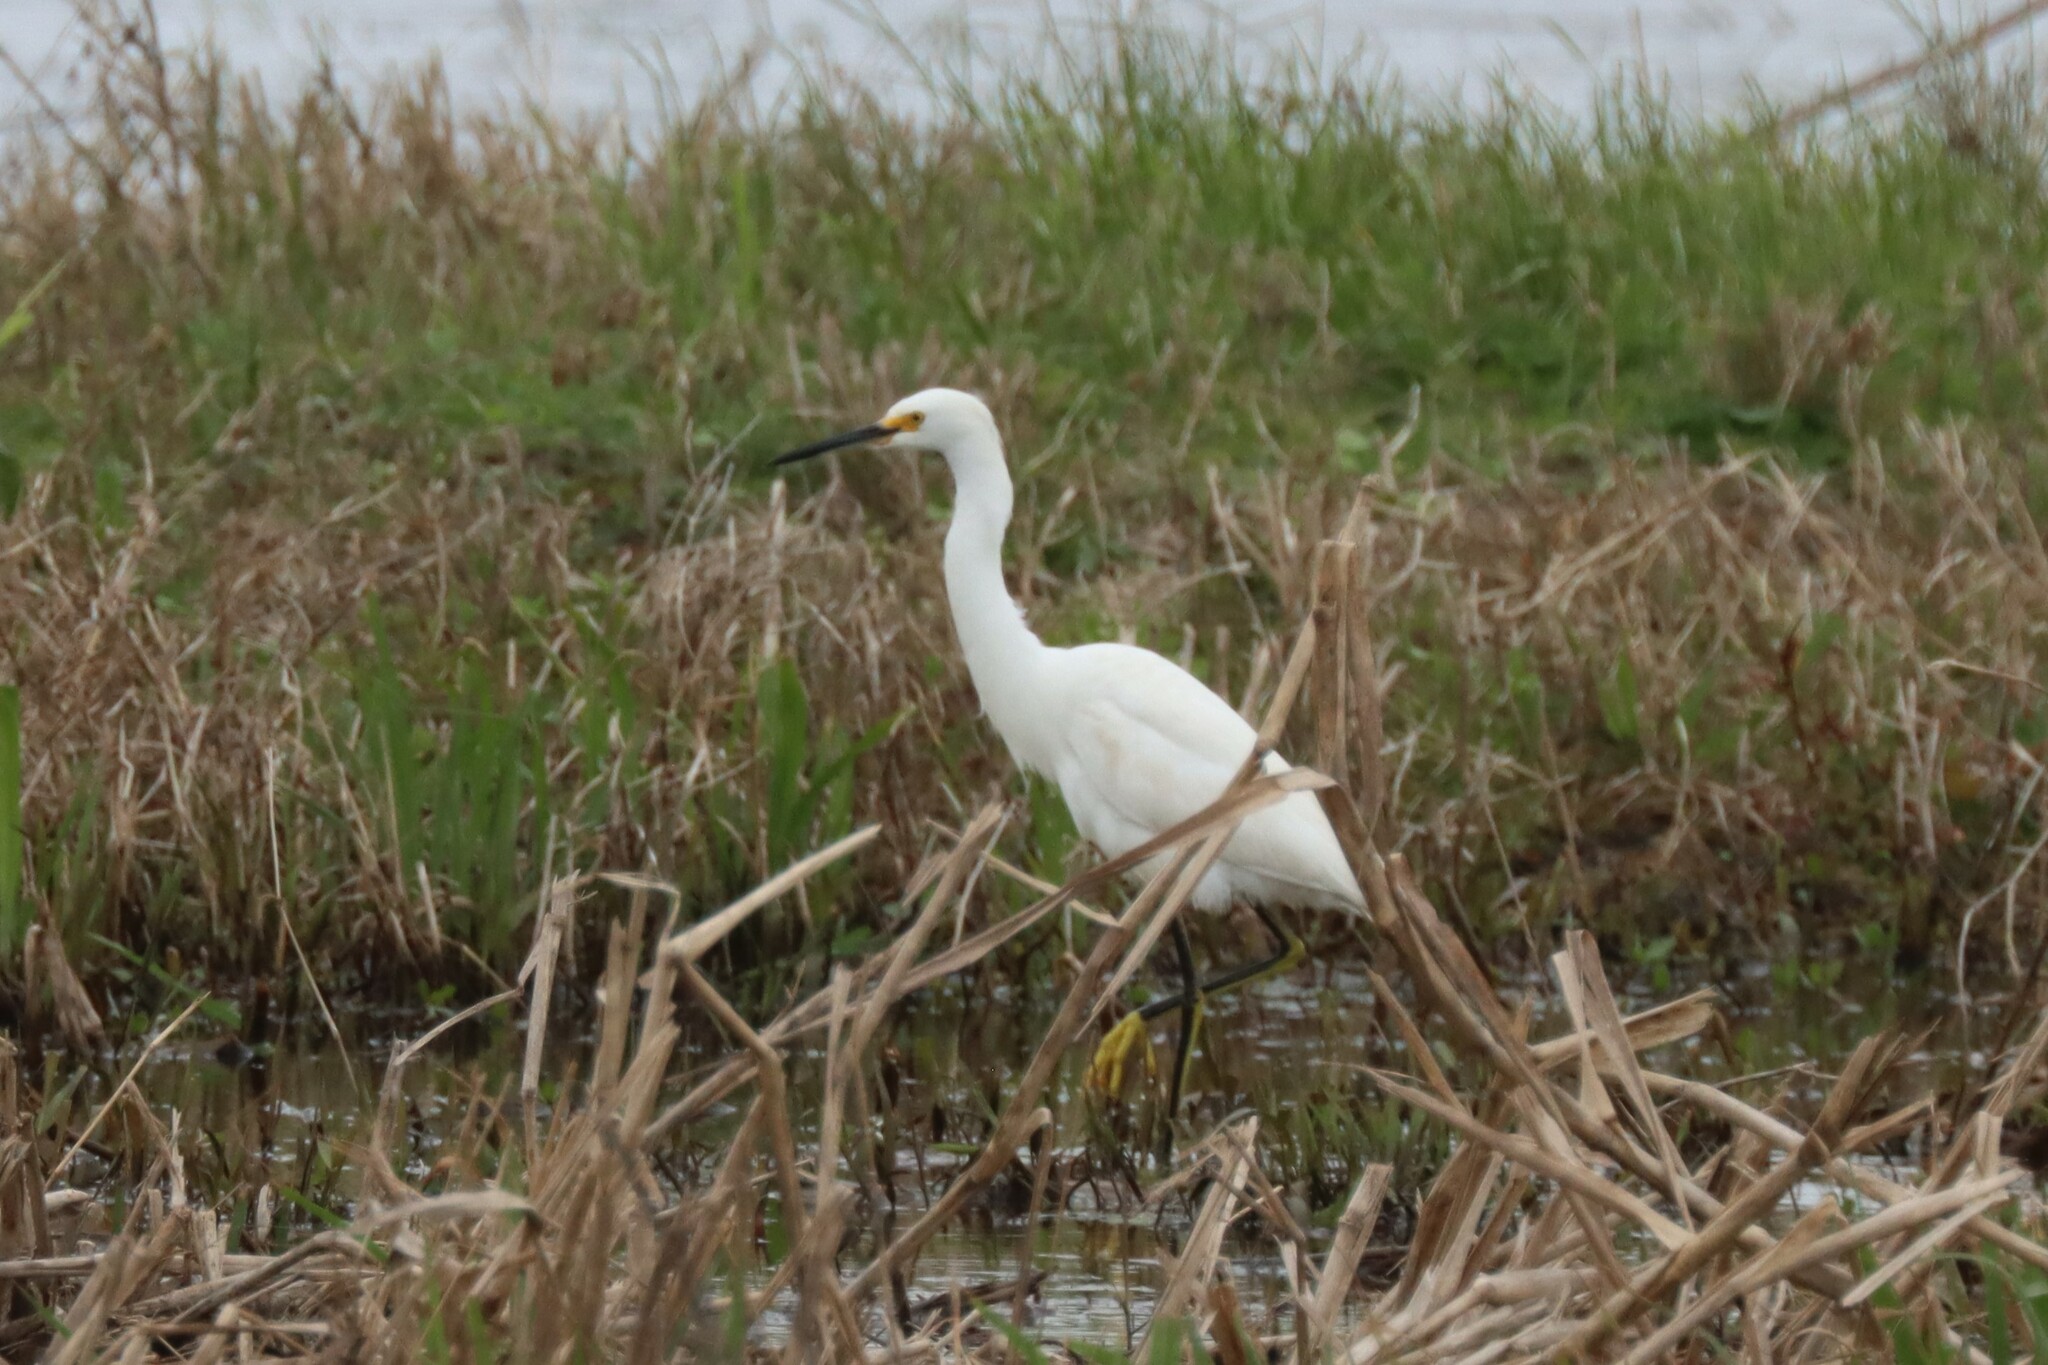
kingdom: Animalia
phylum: Chordata
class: Aves
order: Pelecaniformes
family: Ardeidae
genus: Egretta
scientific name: Egretta thula
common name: Snowy egret
